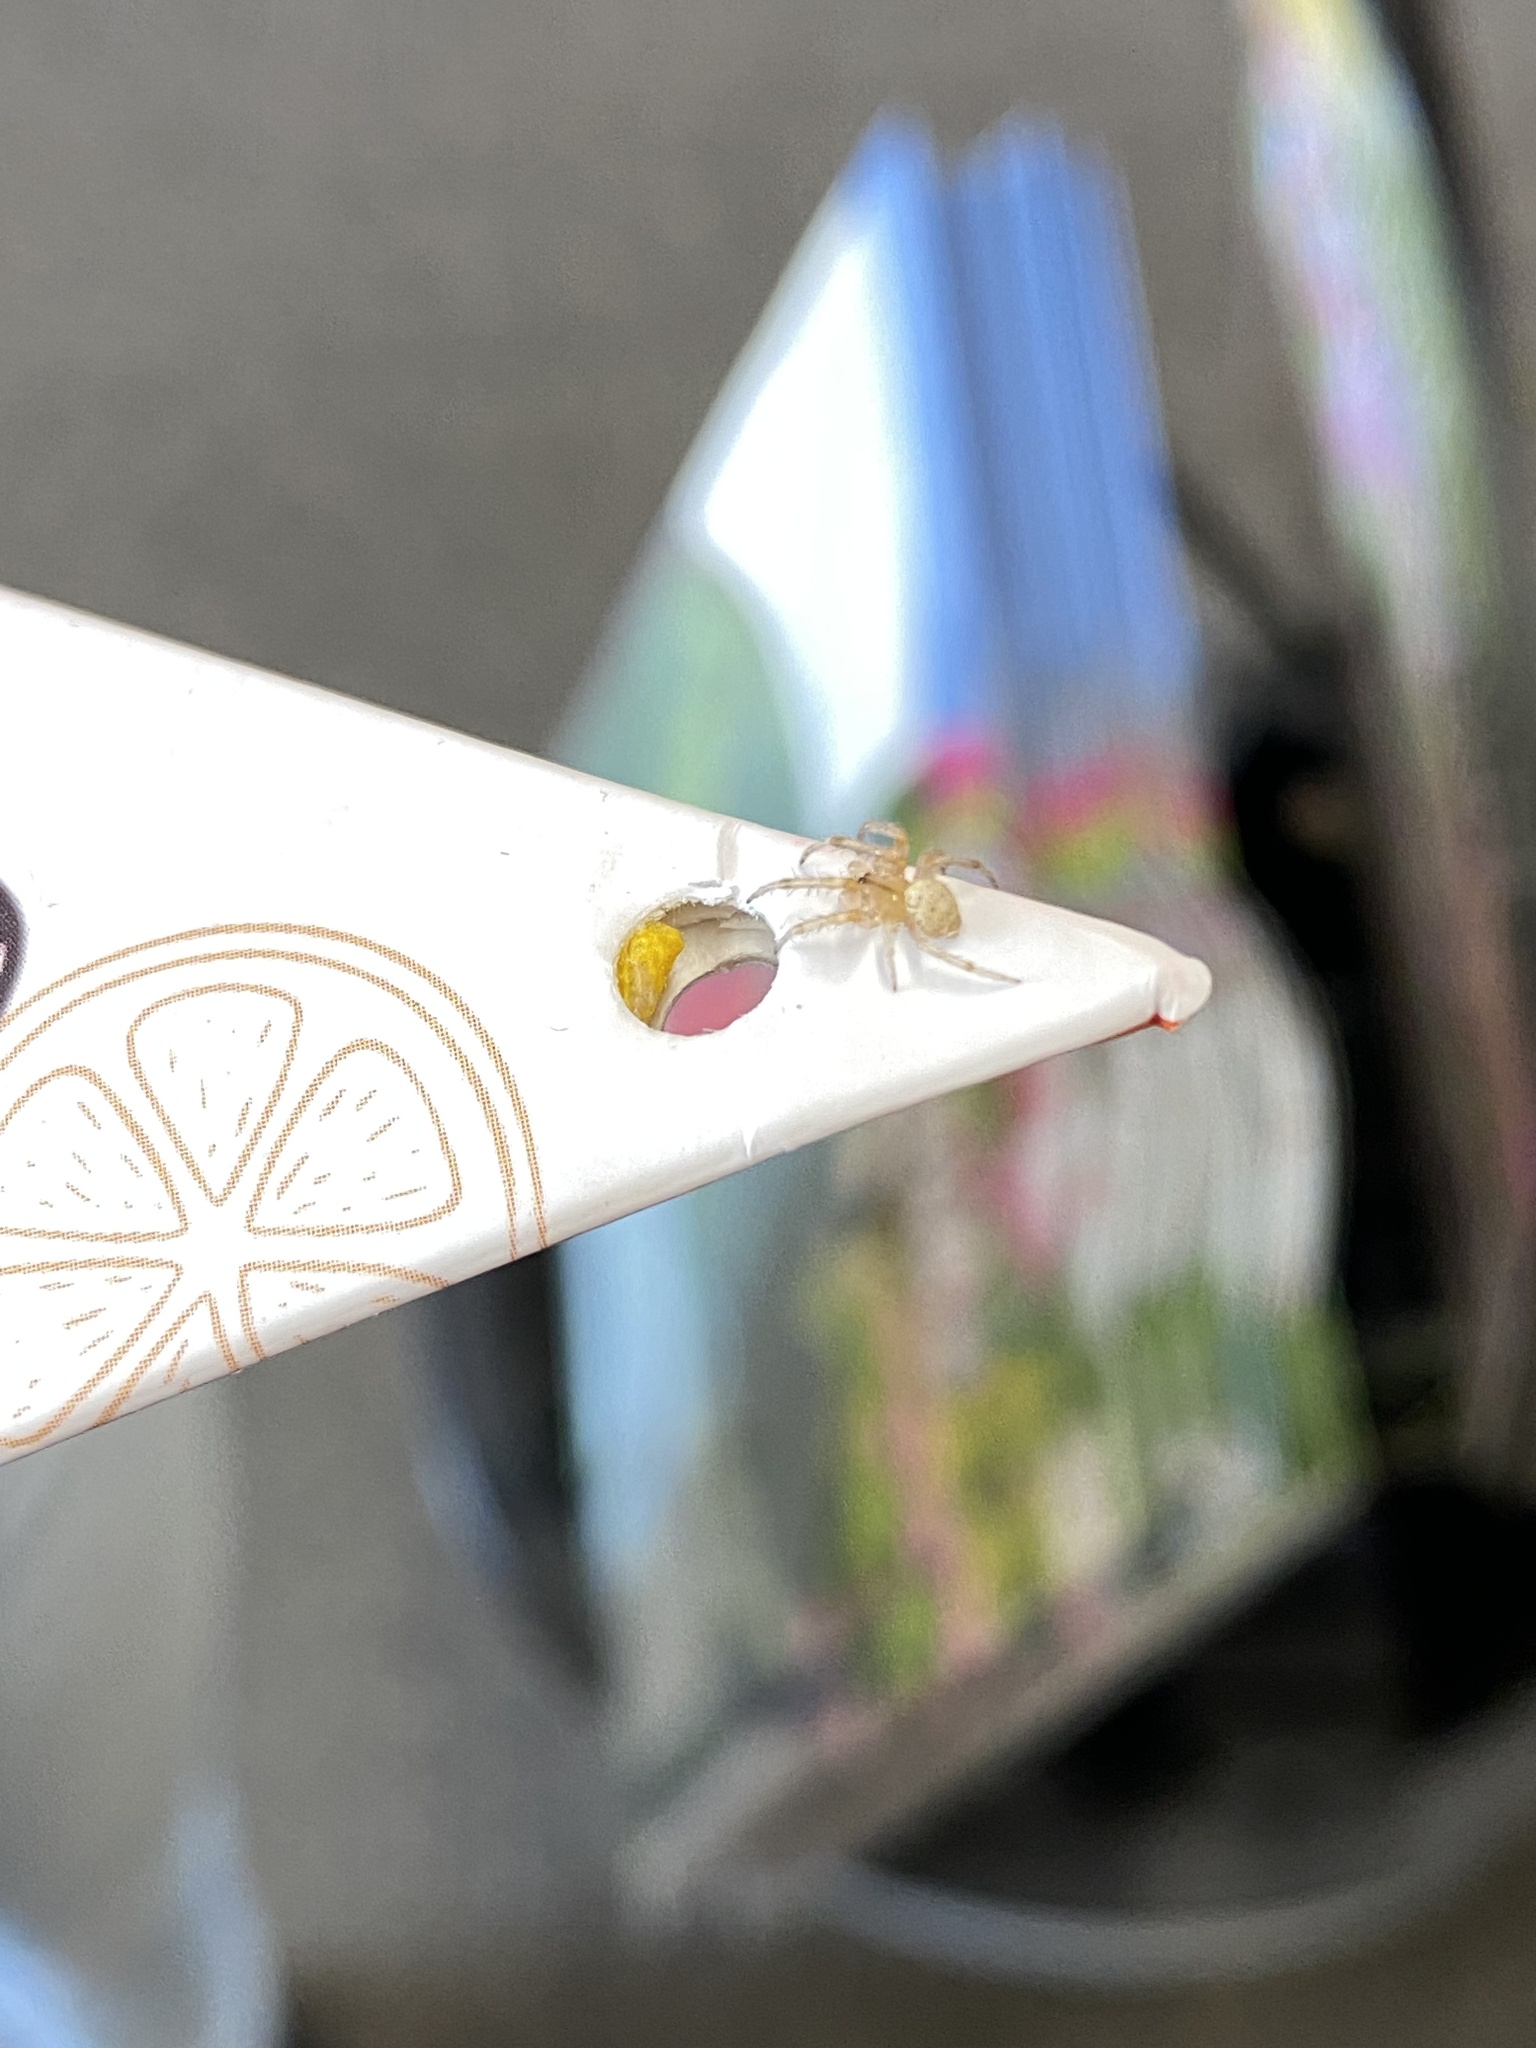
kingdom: Animalia
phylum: Arthropoda
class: Arachnida
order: Araneae
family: Araneidae
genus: Metazygia
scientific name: Metazygia zilloides
